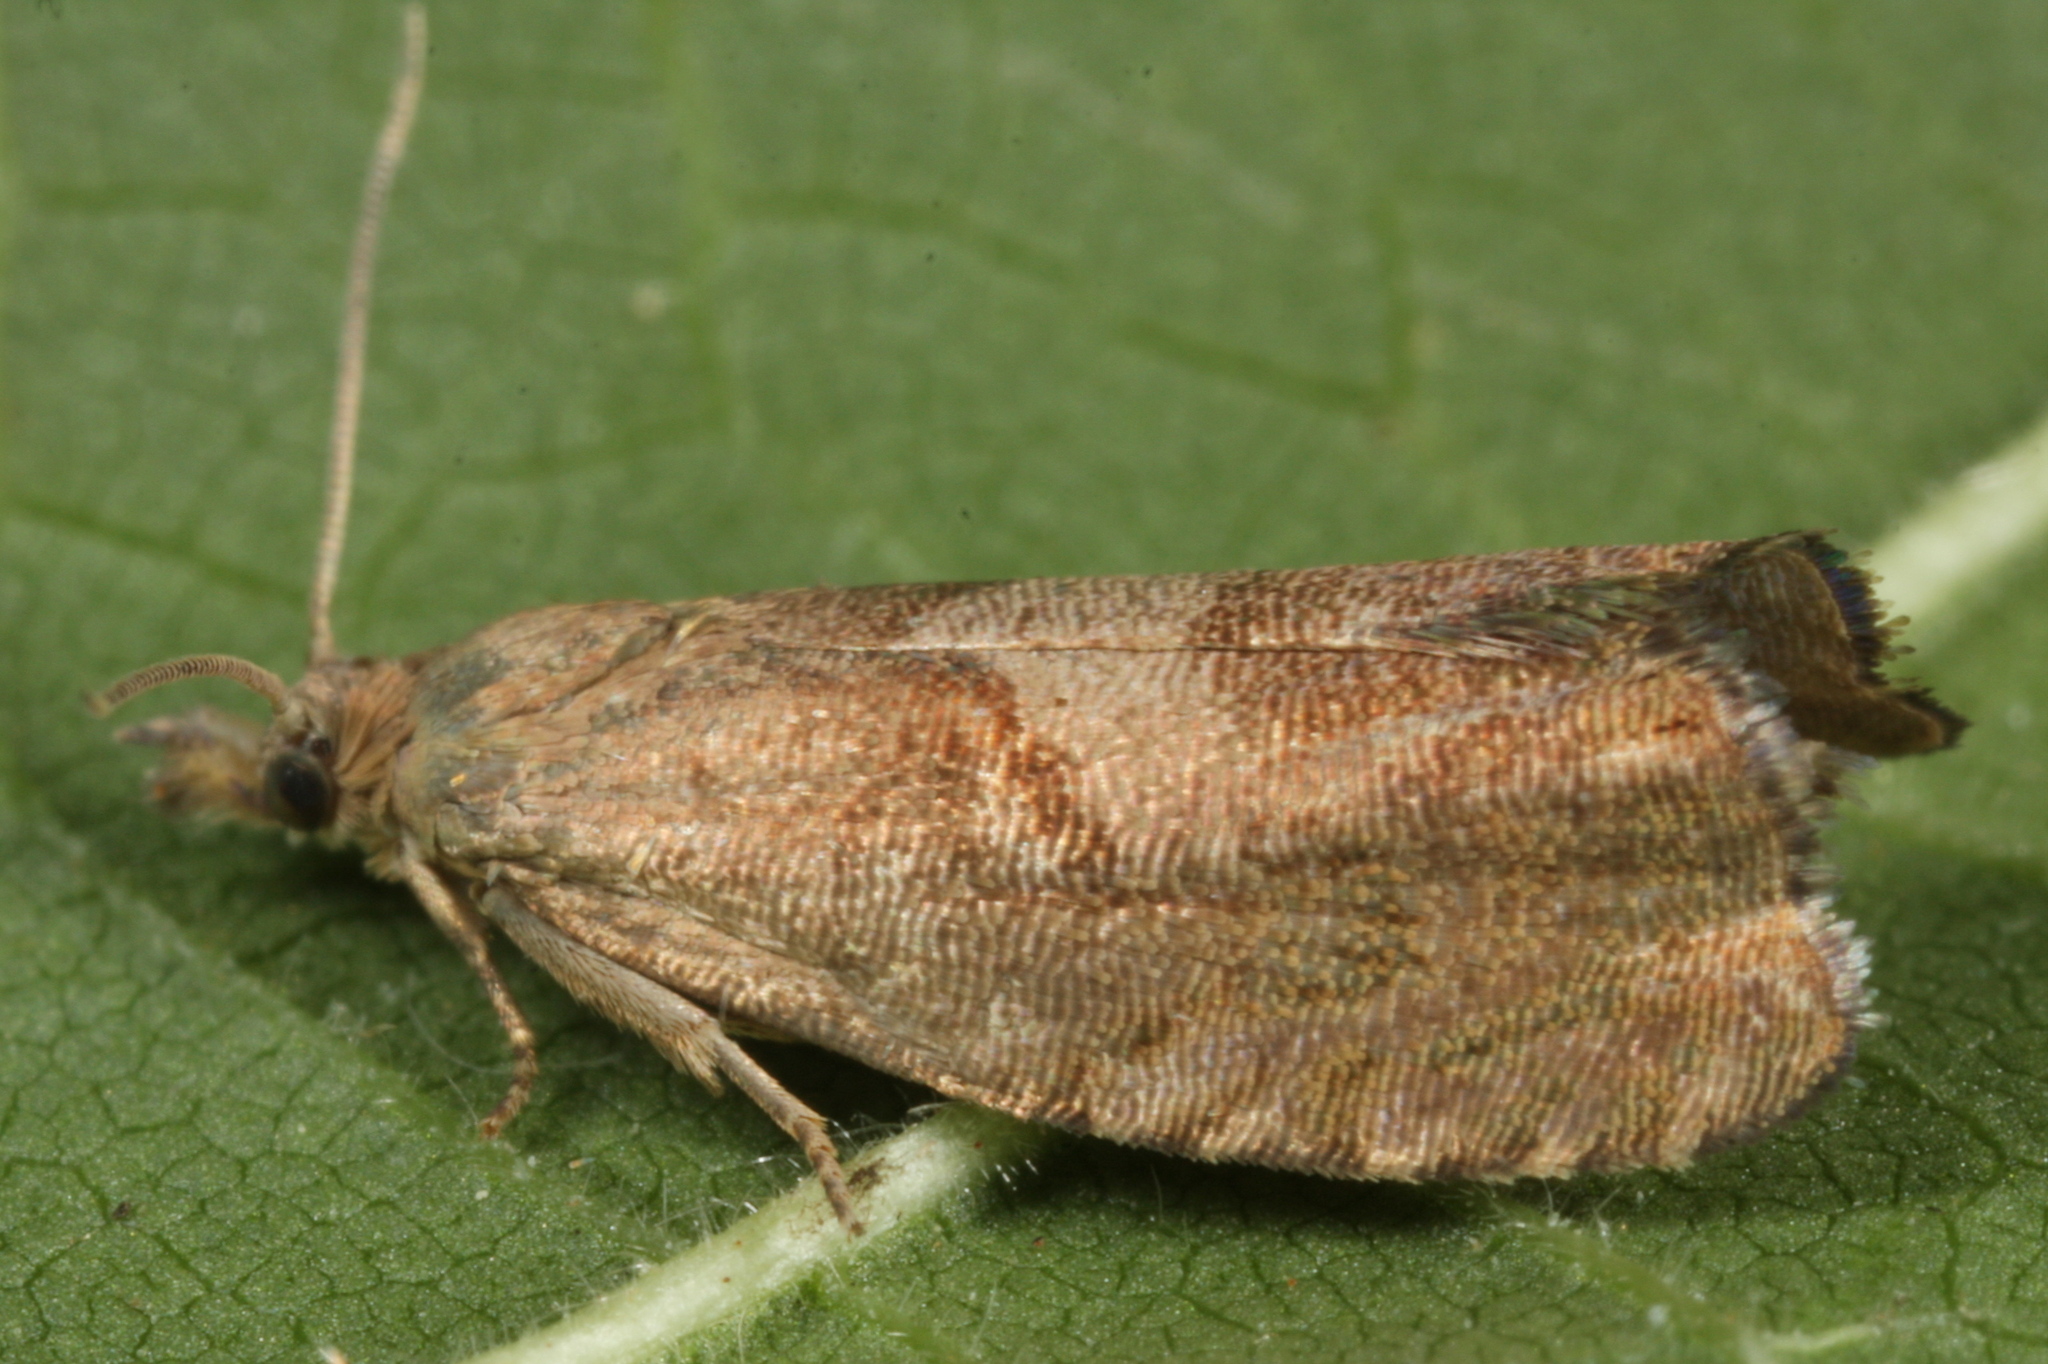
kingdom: Animalia
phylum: Arthropoda
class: Insecta
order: Lepidoptera
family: Tortricidae
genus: Dichrorampha
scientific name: Dichrorampha simpliciana
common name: Round-winged drill
